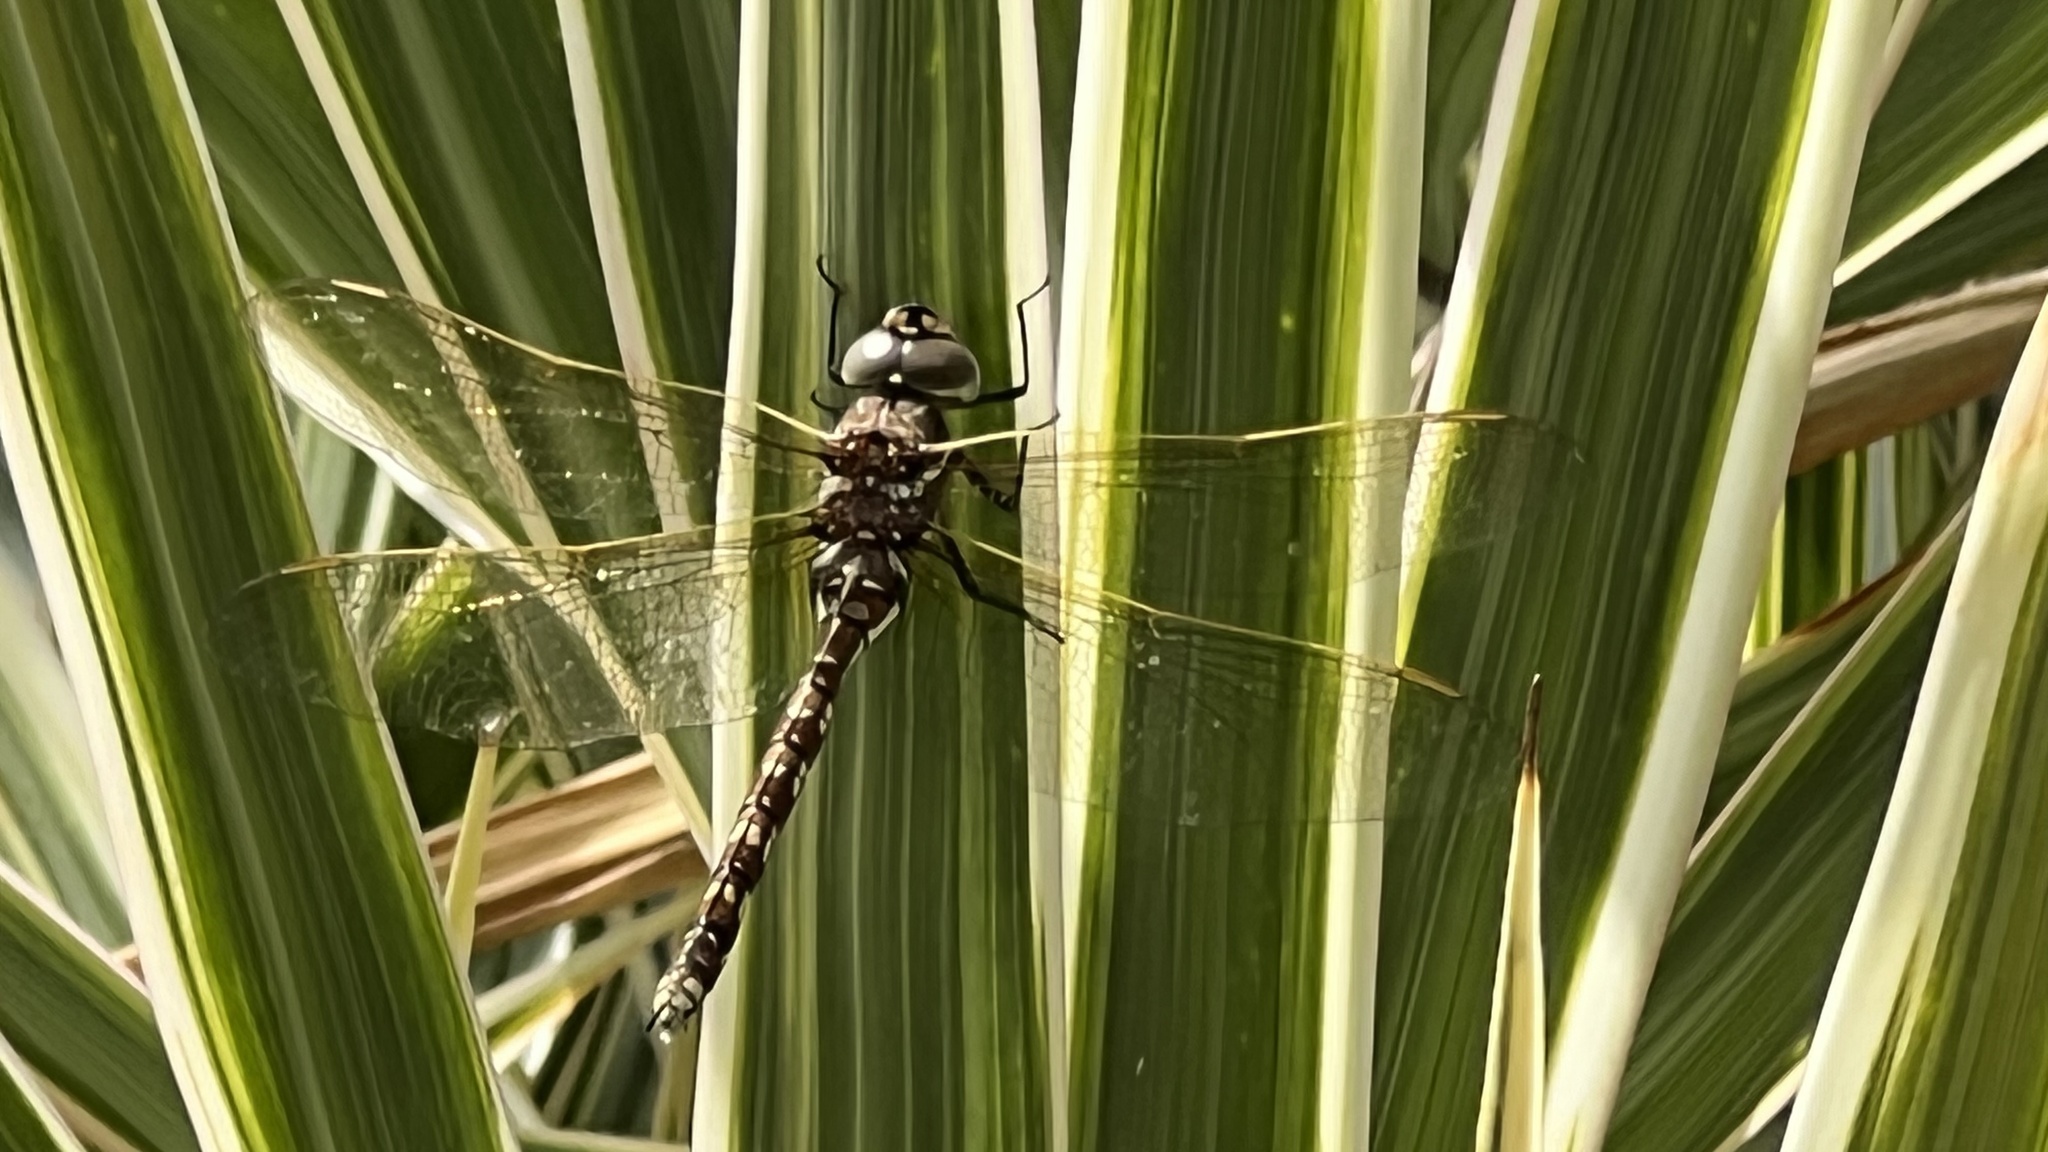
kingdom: Animalia
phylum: Arthropoda
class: Insecta
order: Odonata
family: Aeshnidae
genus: Aeshna
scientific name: Aeshna brevistyla
